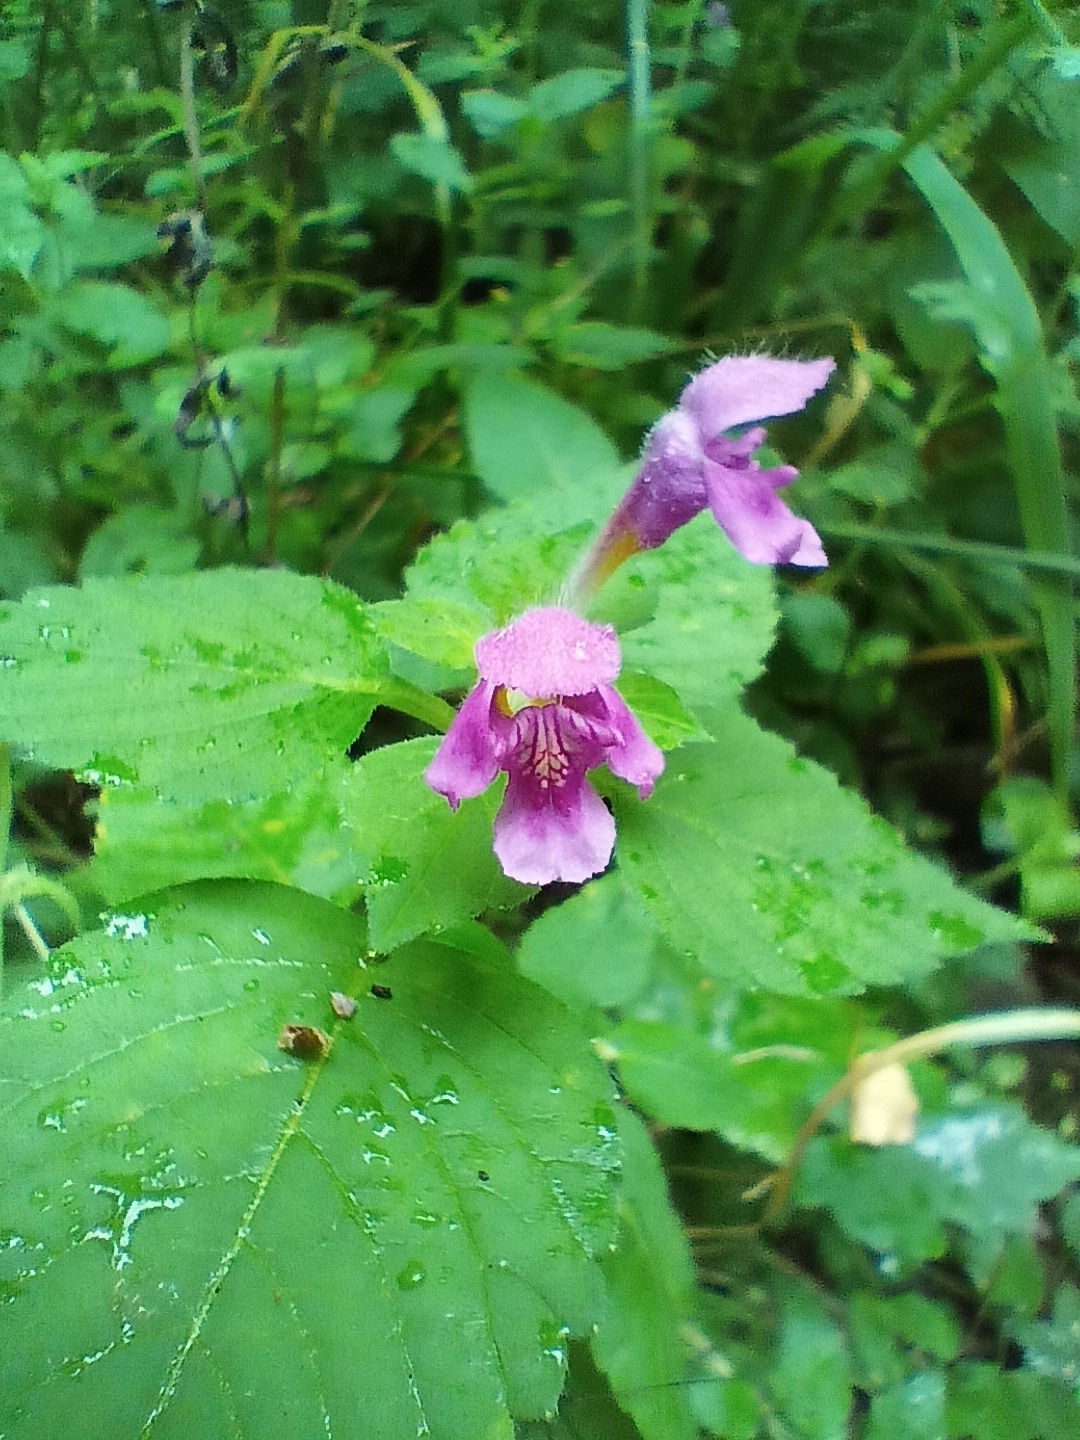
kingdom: Plantae
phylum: Tracheophyta
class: Magnoliopsida
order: Lamiales
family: Lamiaceae
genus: Galeopsis
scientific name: Galeopsis pubescens
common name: Downy hemp-nettle
